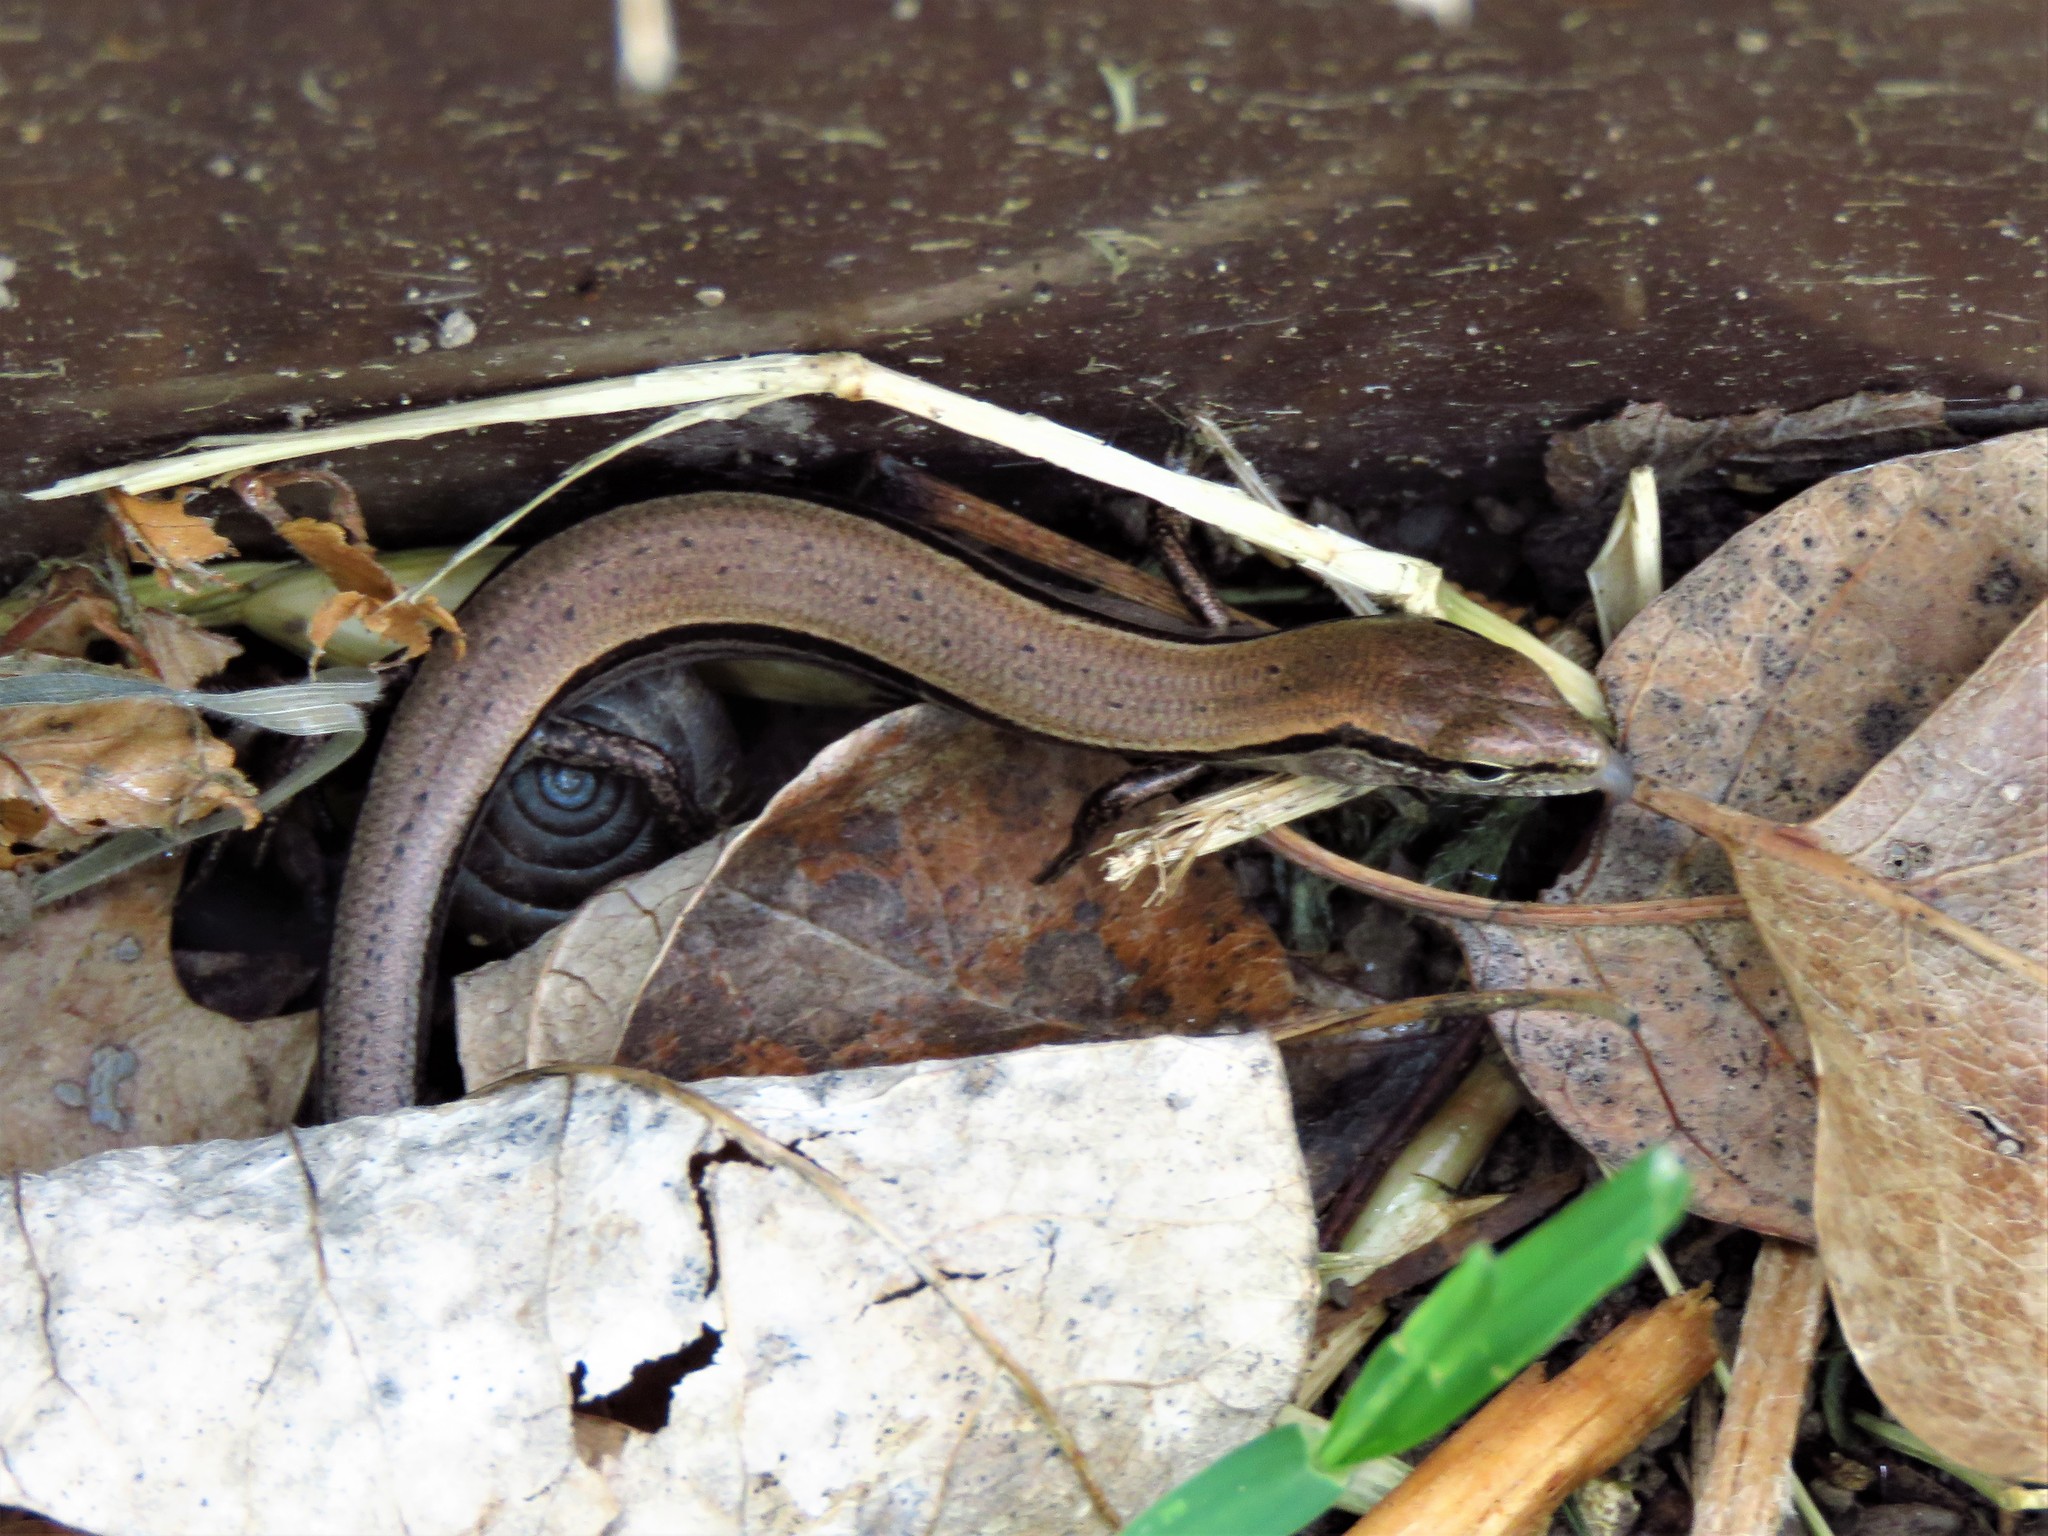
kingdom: Animalia
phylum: Chordata
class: Squamata
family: Scincidae
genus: Scincella
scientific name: Scincella lateralis
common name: Ground skink
